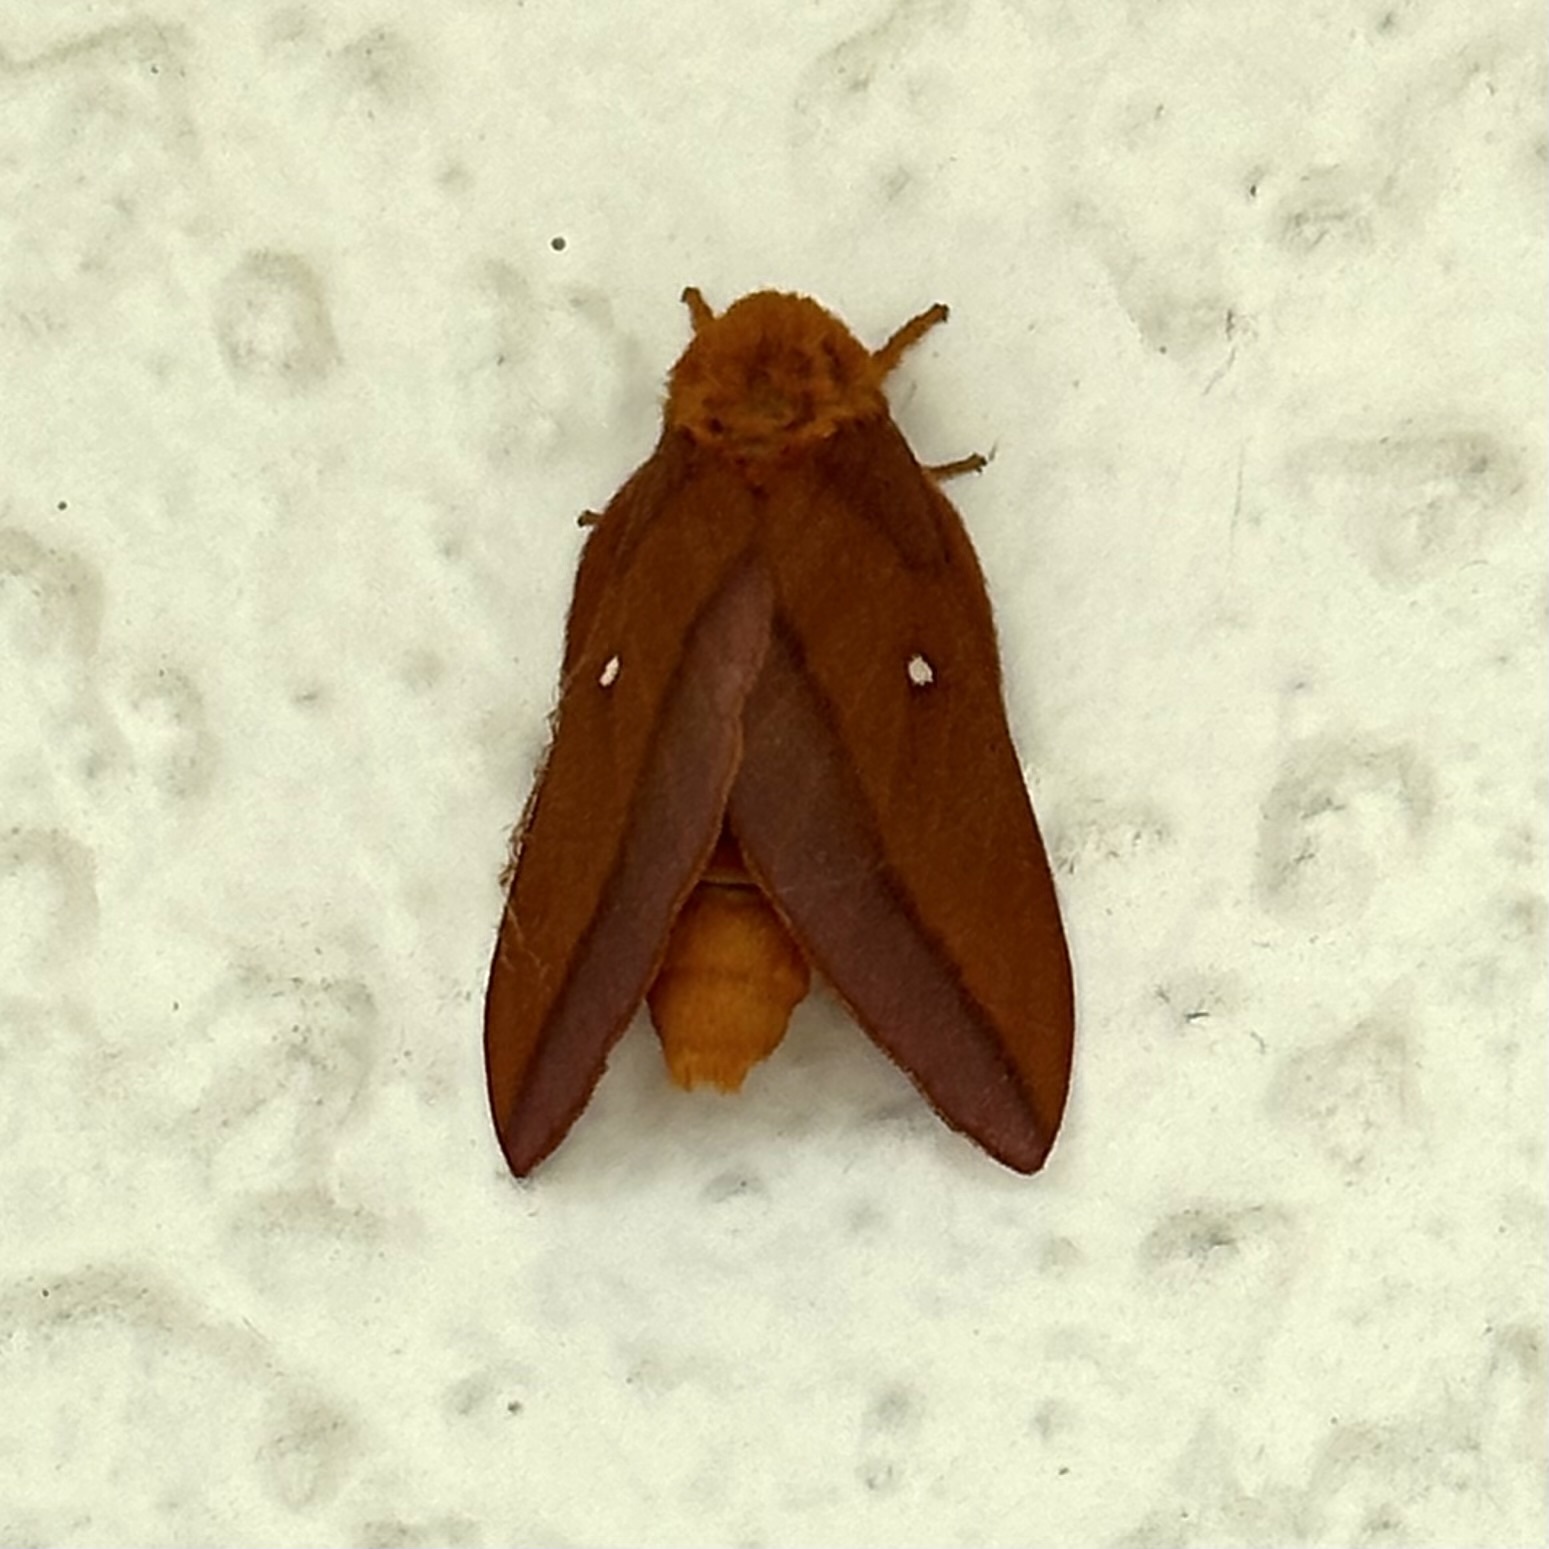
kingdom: Animalia
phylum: Arthropoda
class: Insecta
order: Lepidoptera
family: Saturniidae
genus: Anisota
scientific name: Anisota virginiensis
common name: Pink striped oakworm moth
